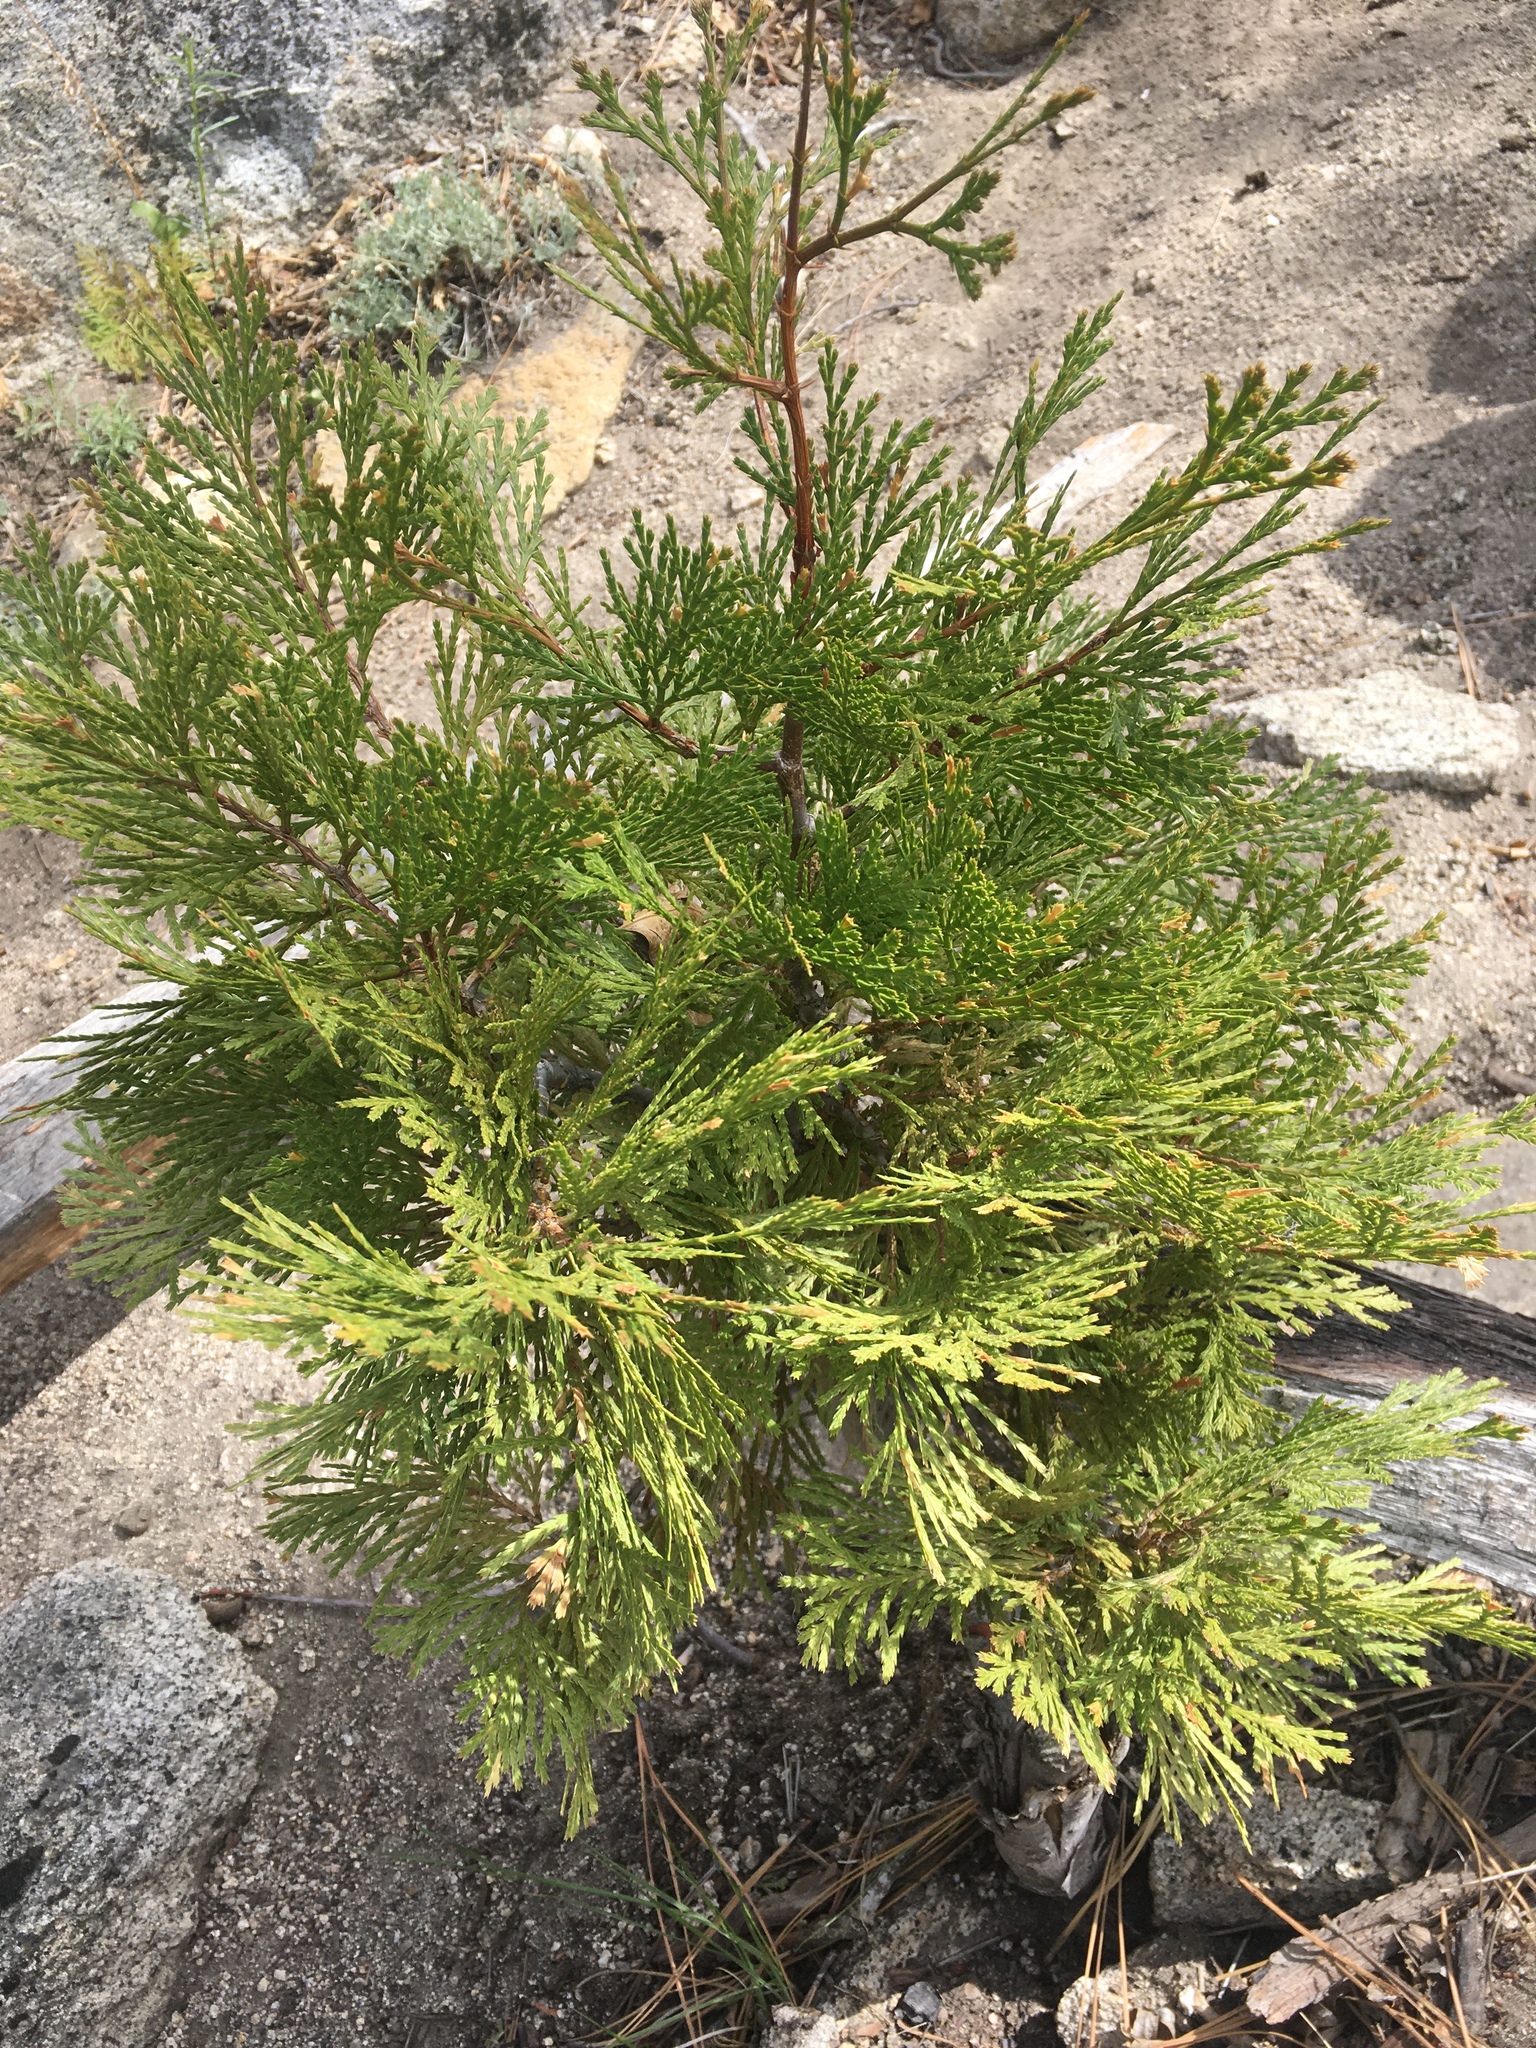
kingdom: Plantae
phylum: Tracheophyta
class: Pinopsida
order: Pinales
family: Cupressaceae
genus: Calocedrus
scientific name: Calocedrus decurrens
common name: Californian incense-cedar
